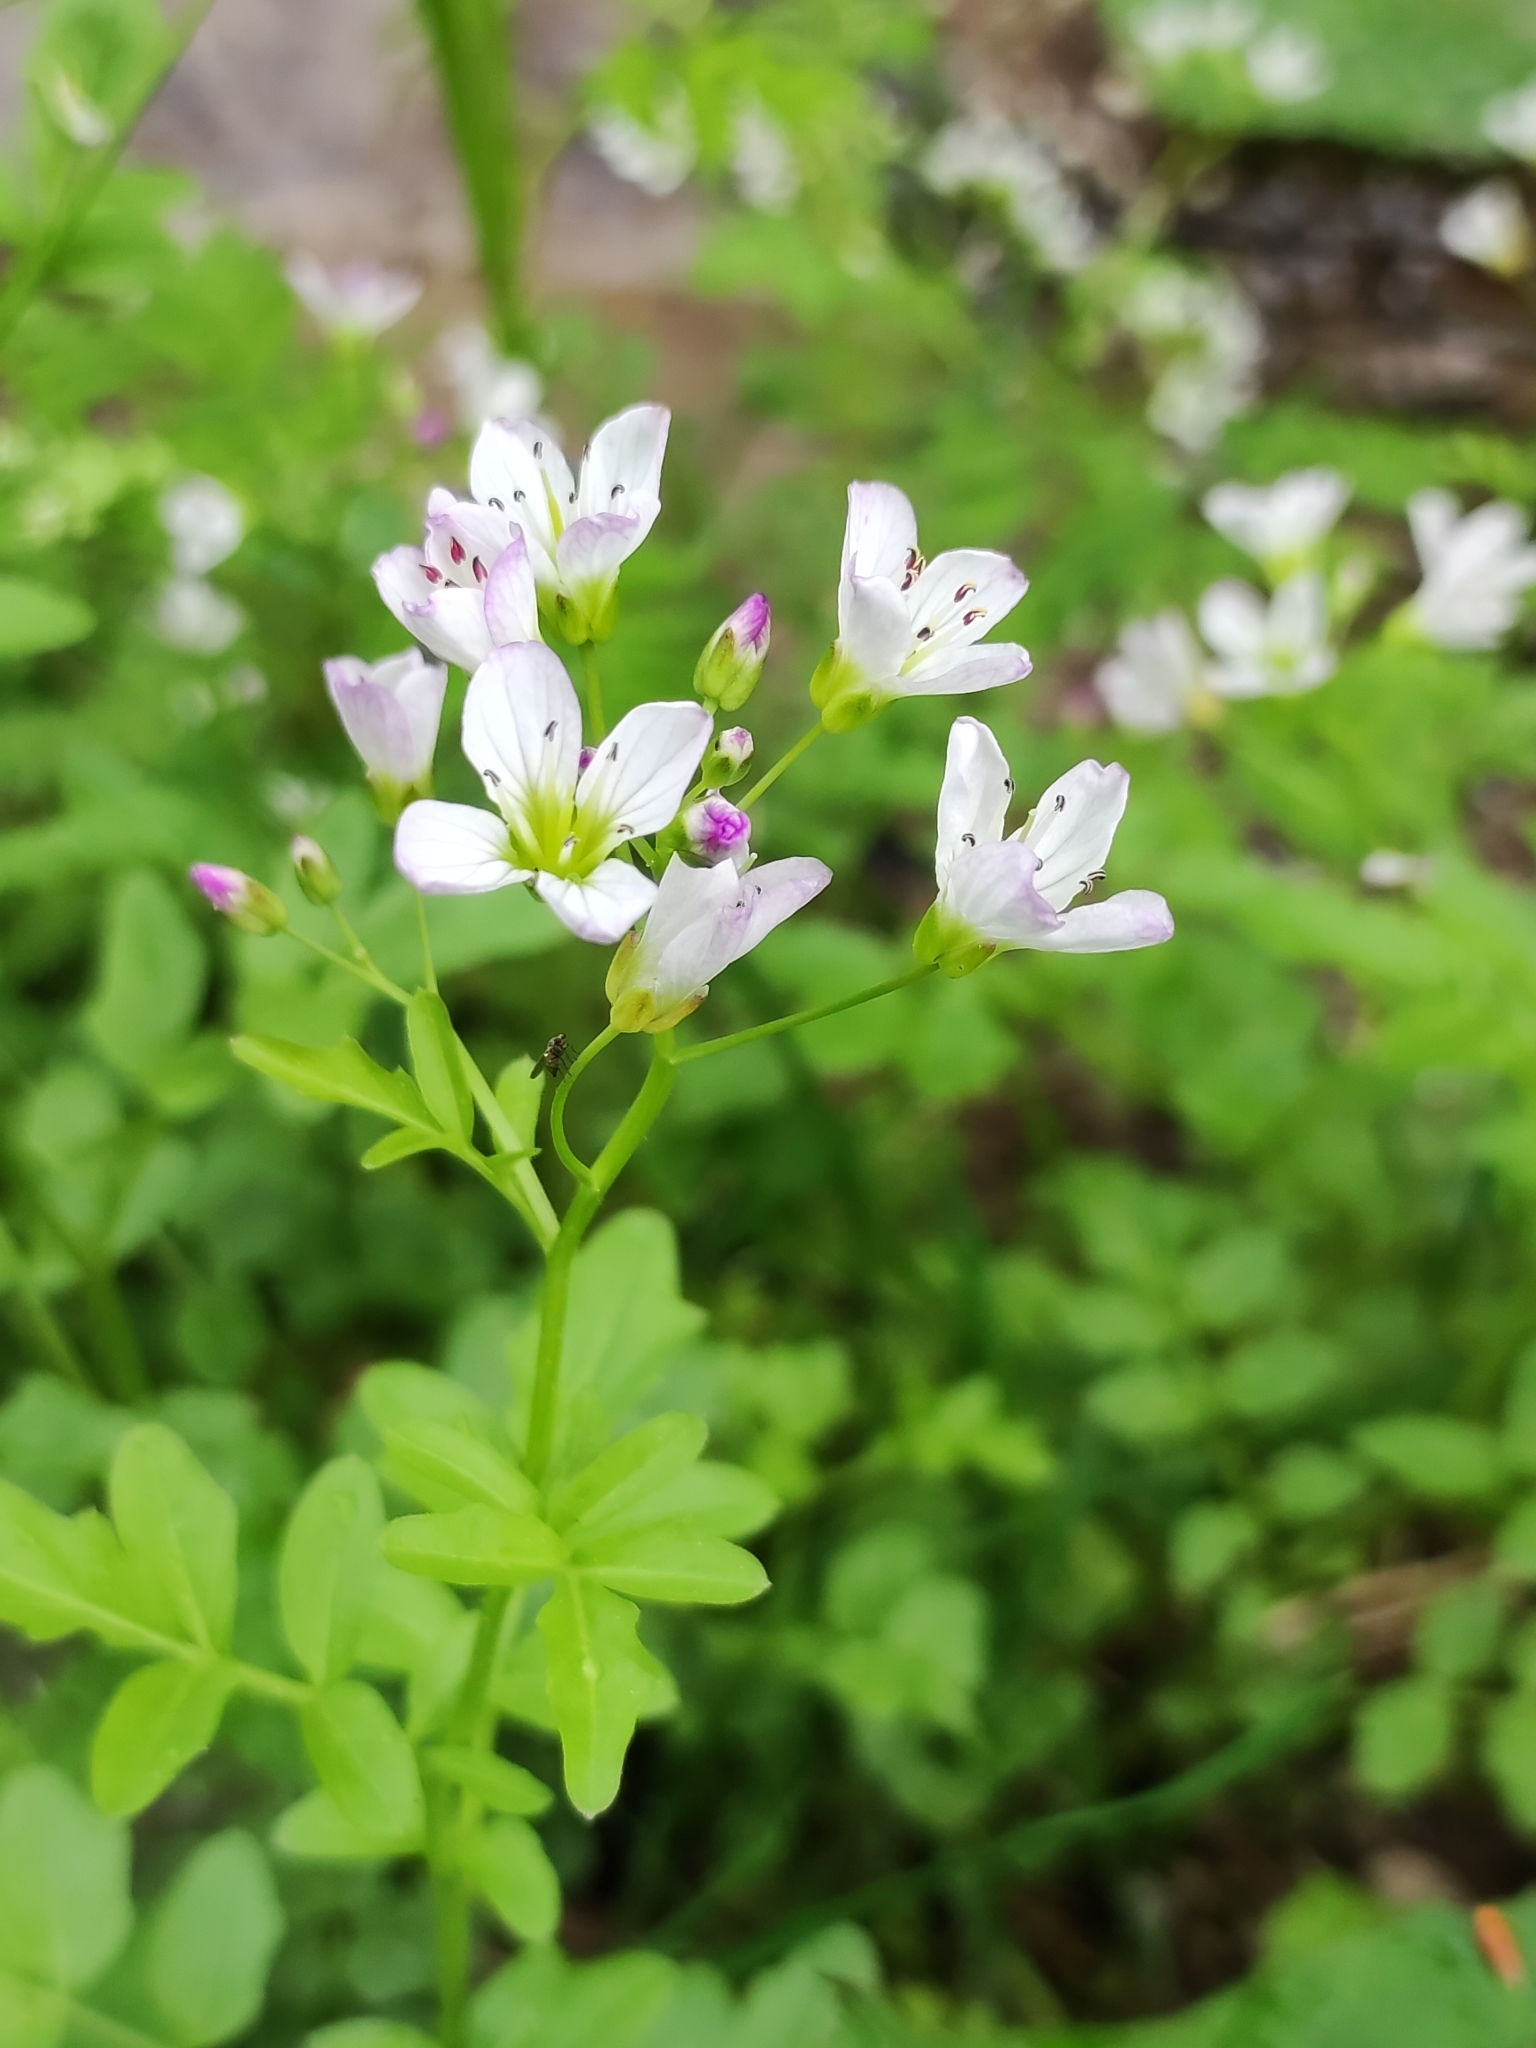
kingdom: Plantae
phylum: Tracheophyta
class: Magnoliopsida
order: Brassicales
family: Brassicaceae
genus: Cardamine
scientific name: Cardamine amara
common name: Large bitter-cress
